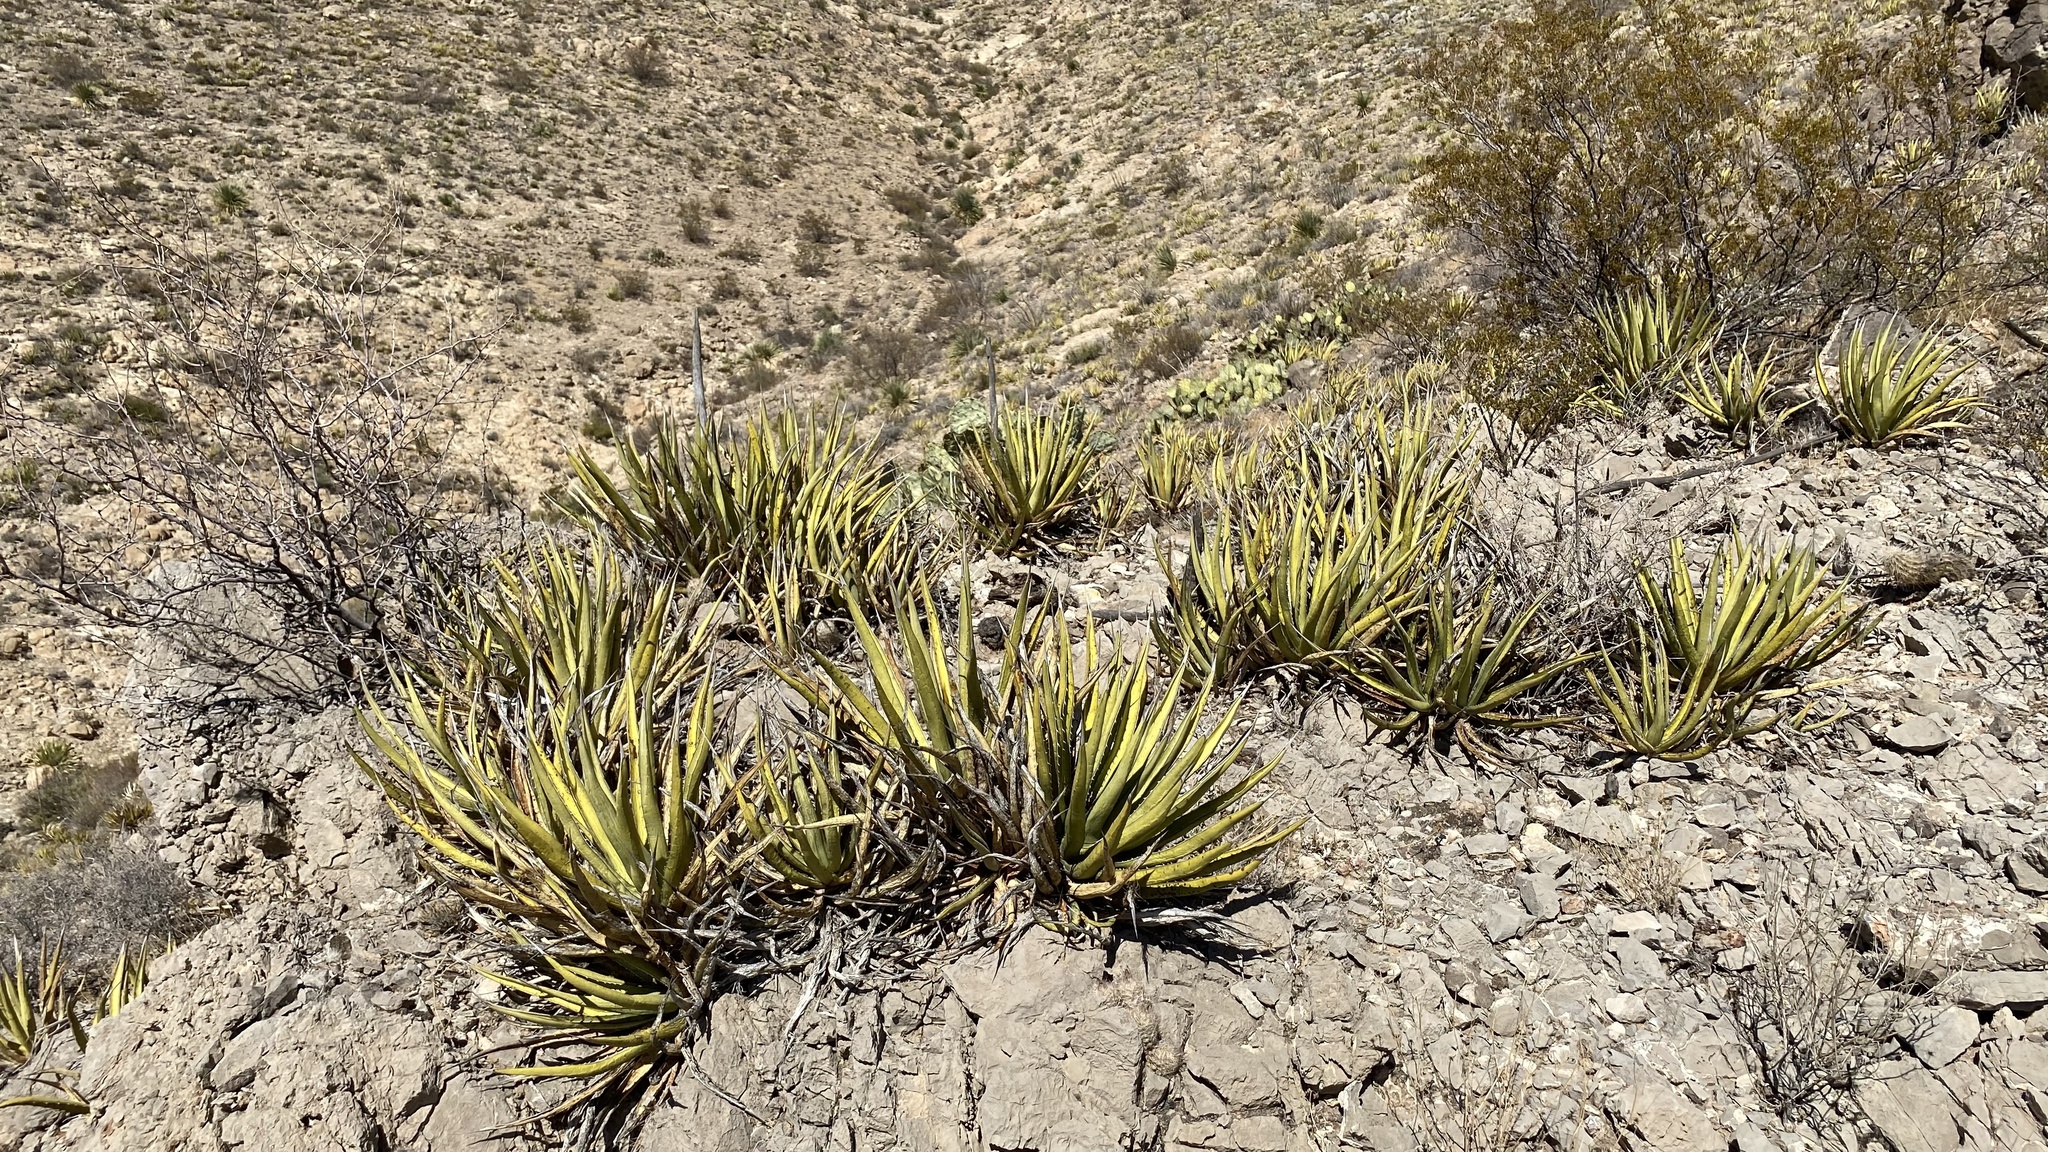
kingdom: Plantae
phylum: Tracheophyta
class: Liliopsida
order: Asparagales
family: Asparagaceae
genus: Agave
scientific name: Agave lechuguilla
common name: Lecheguilla agave
